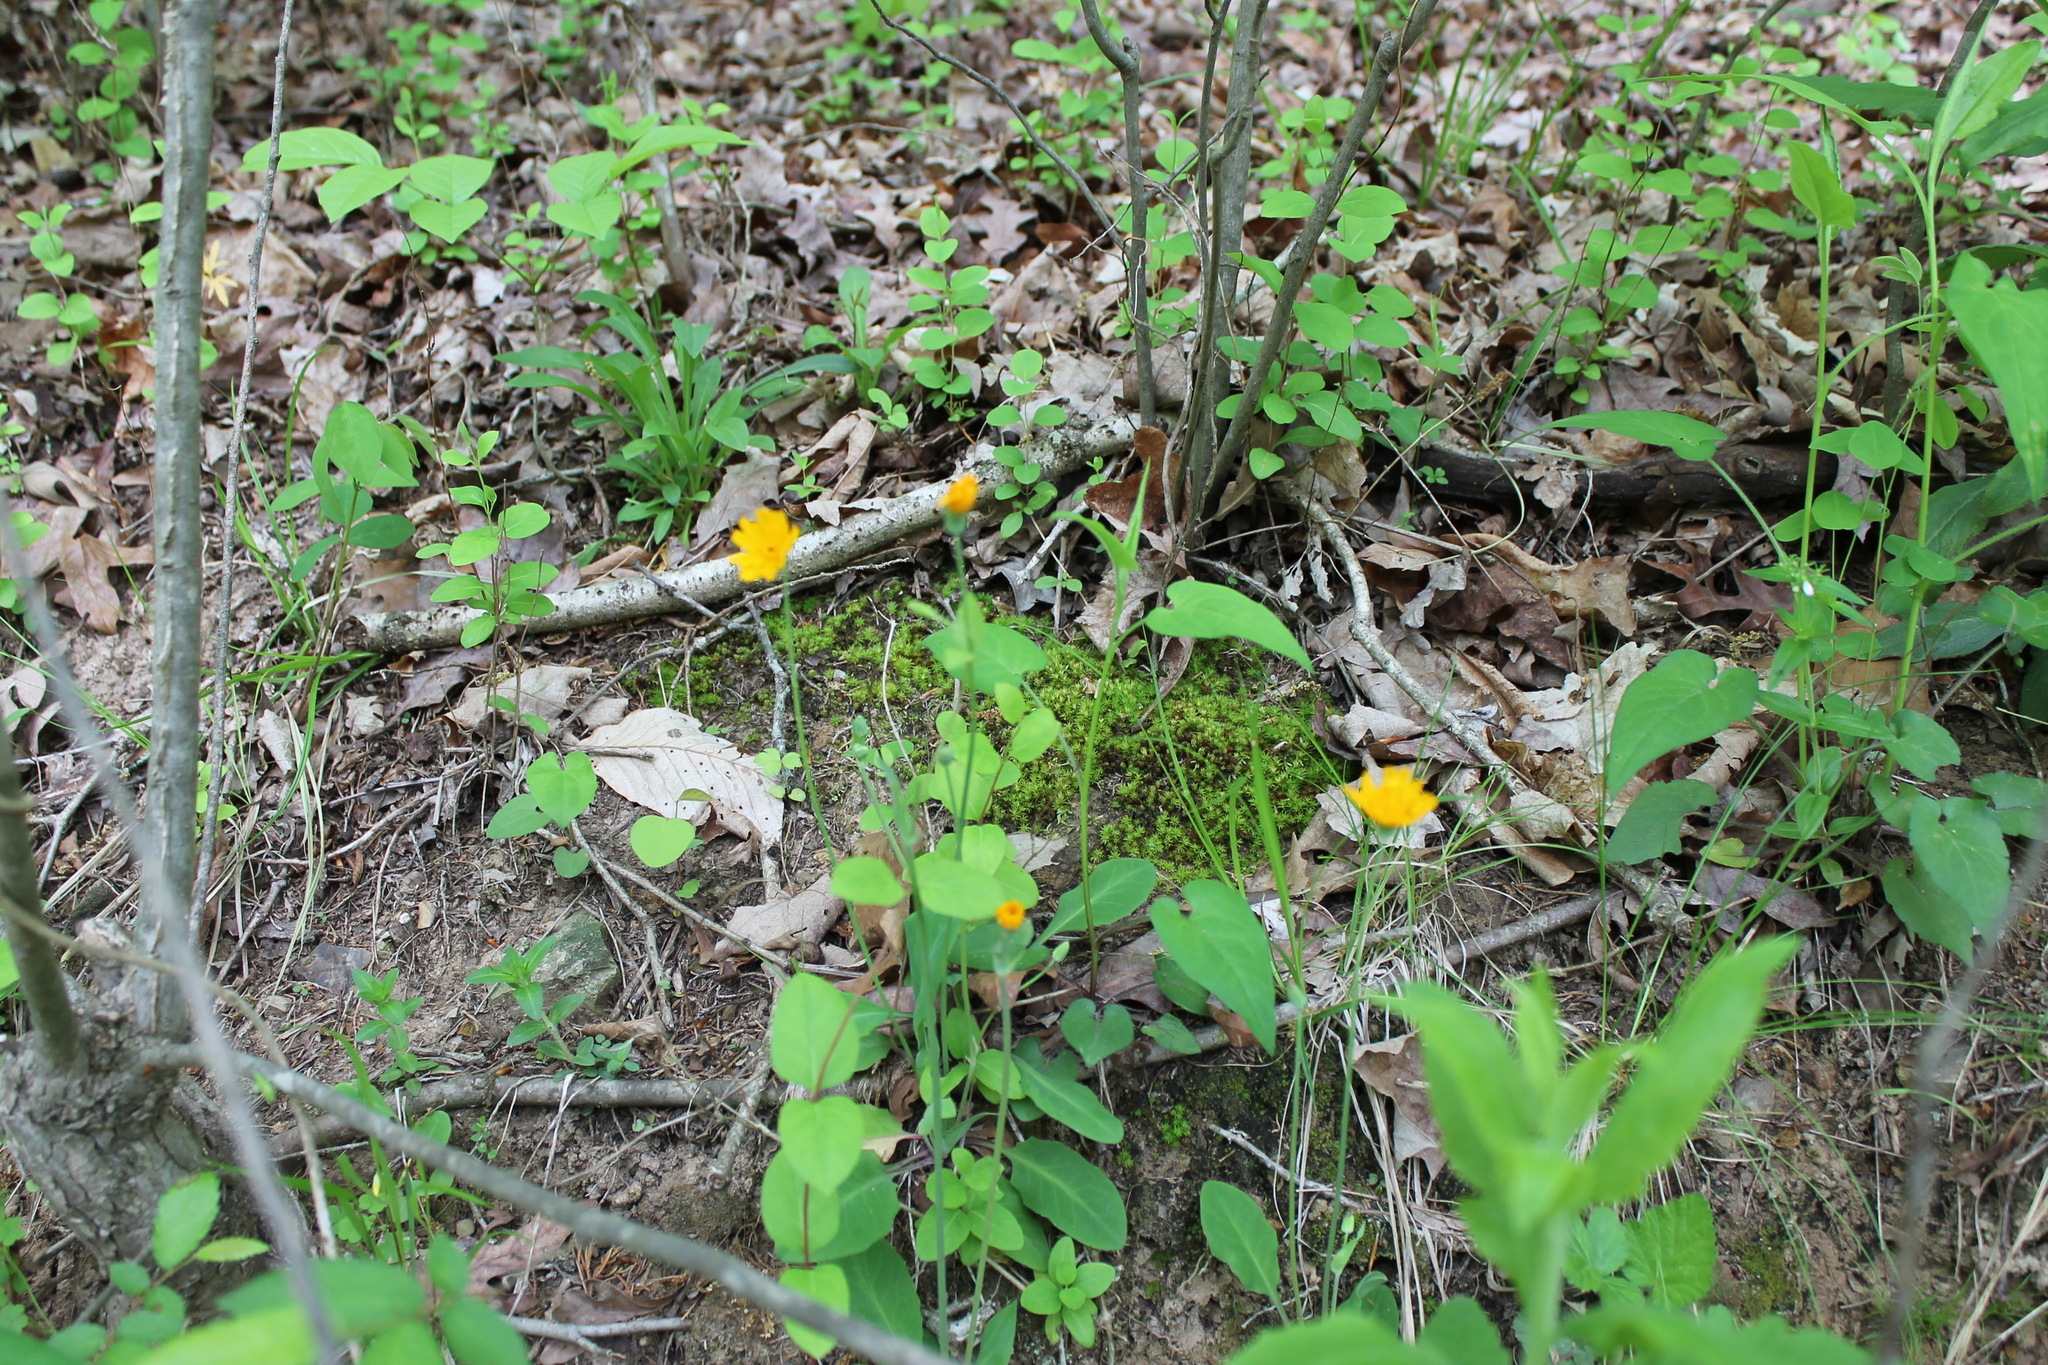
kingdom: Plantae
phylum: Tracheophyta
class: Magnoliopsida
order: Asterales
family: Asteraceae
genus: Krigia
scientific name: Krigia biflora
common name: Orange dwarf-dandelion
